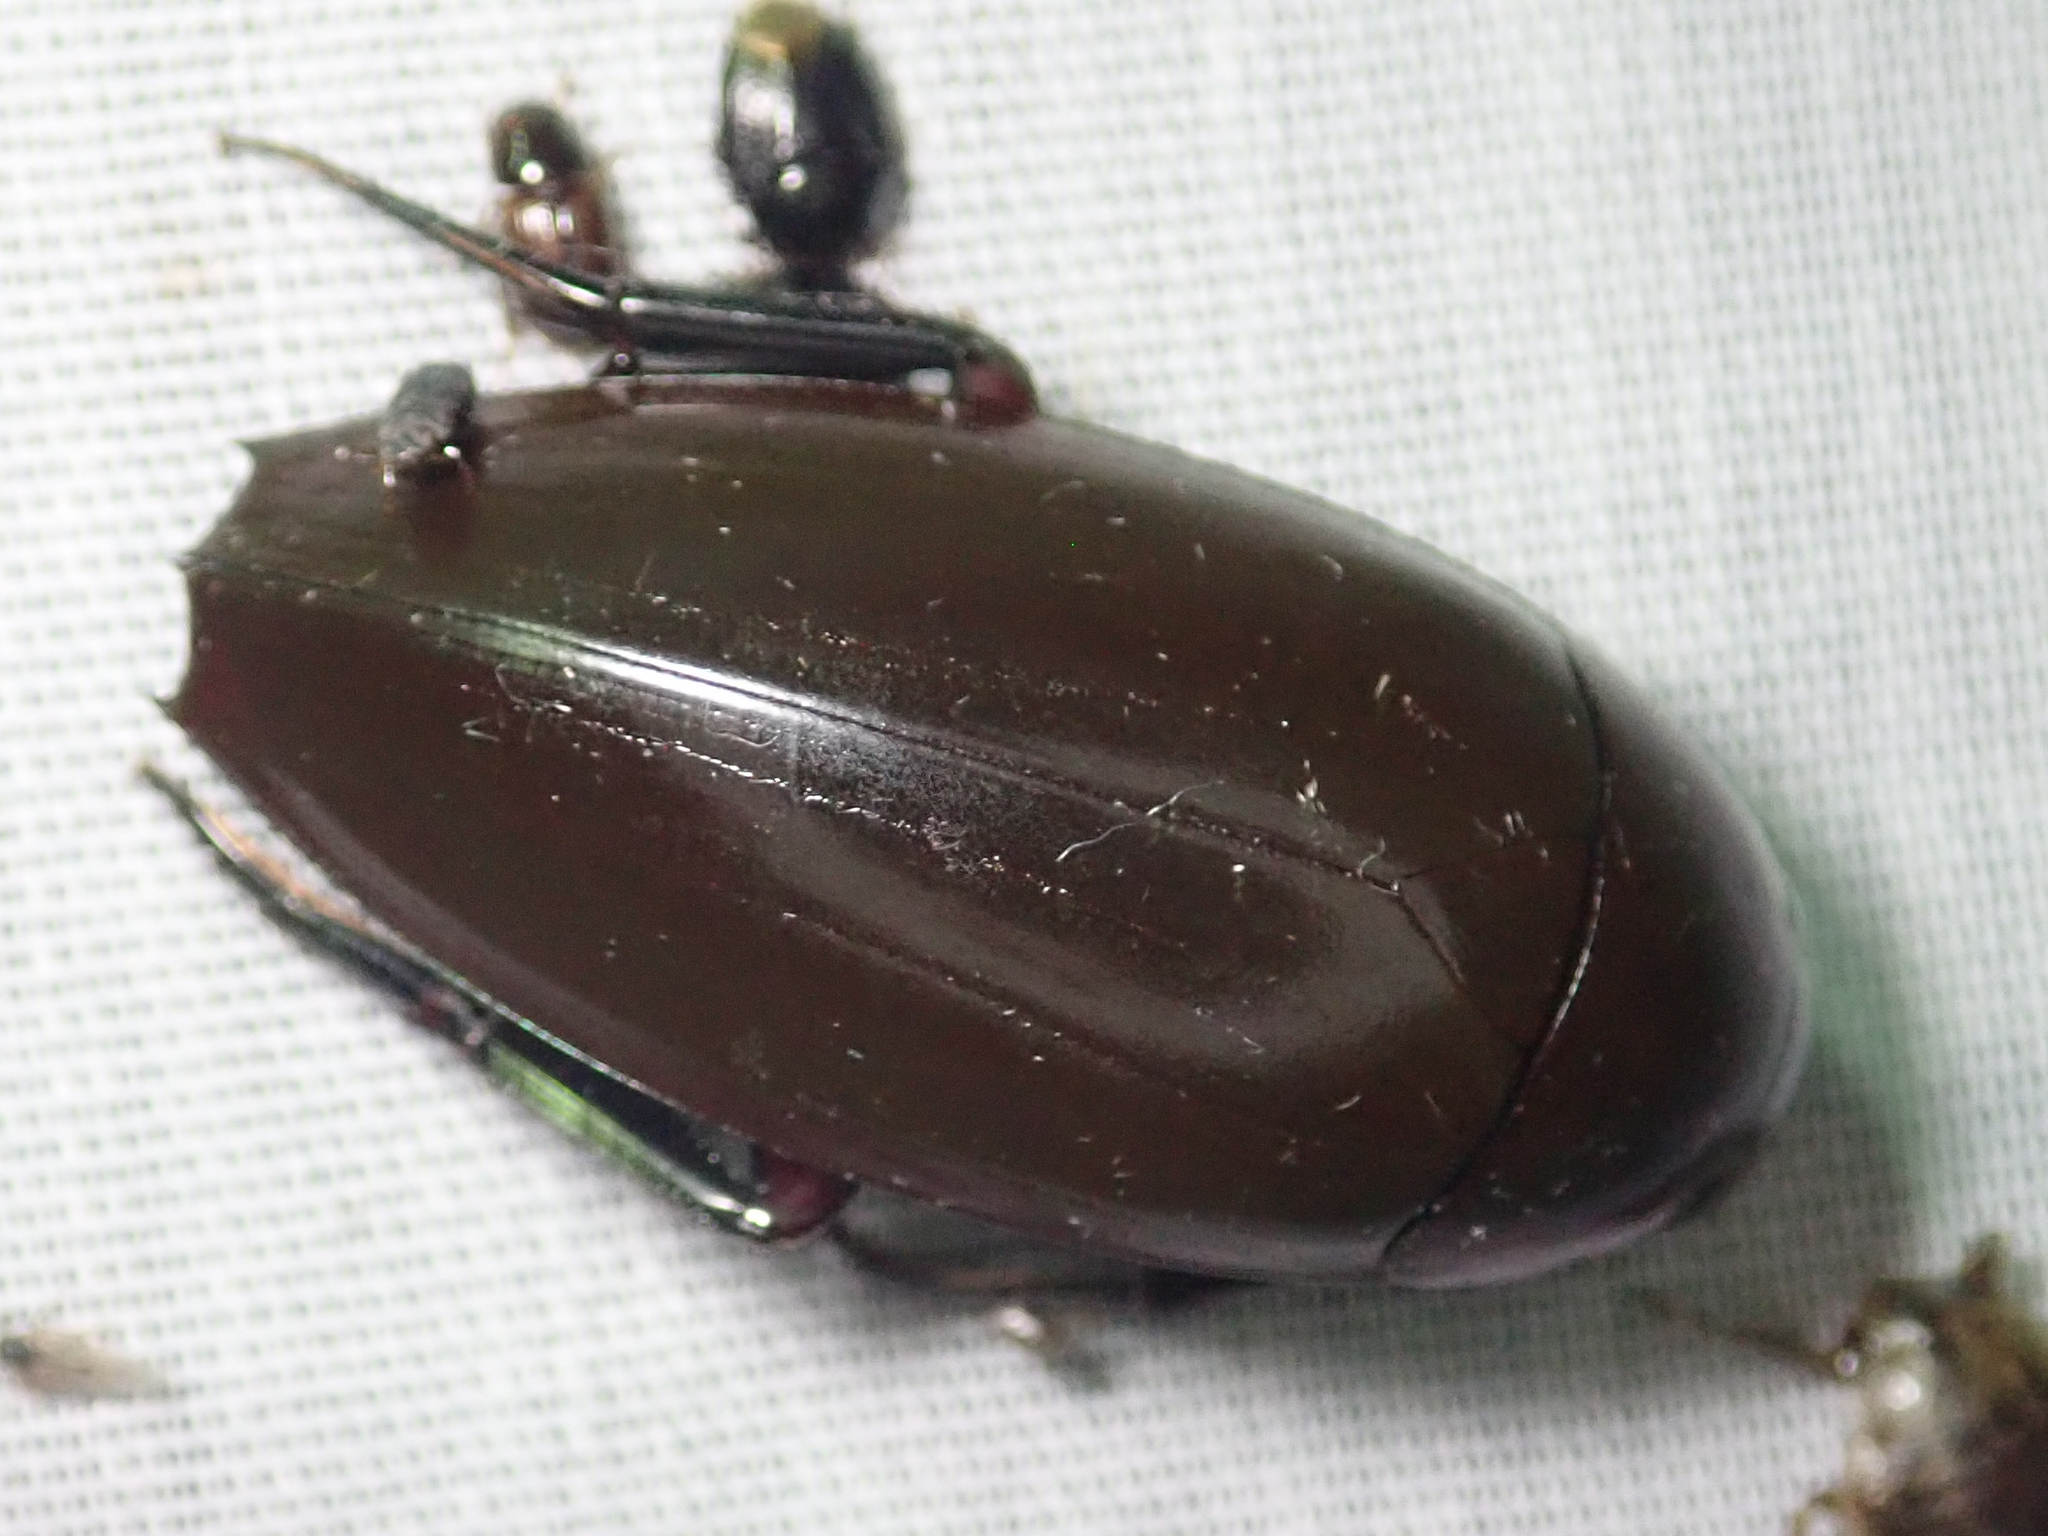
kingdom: Animalia
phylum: Arthropoda
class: Insecta
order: Coleoptera
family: Hydrophilidae
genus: Hydrophilus
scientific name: Hydrophilus aculeatus
